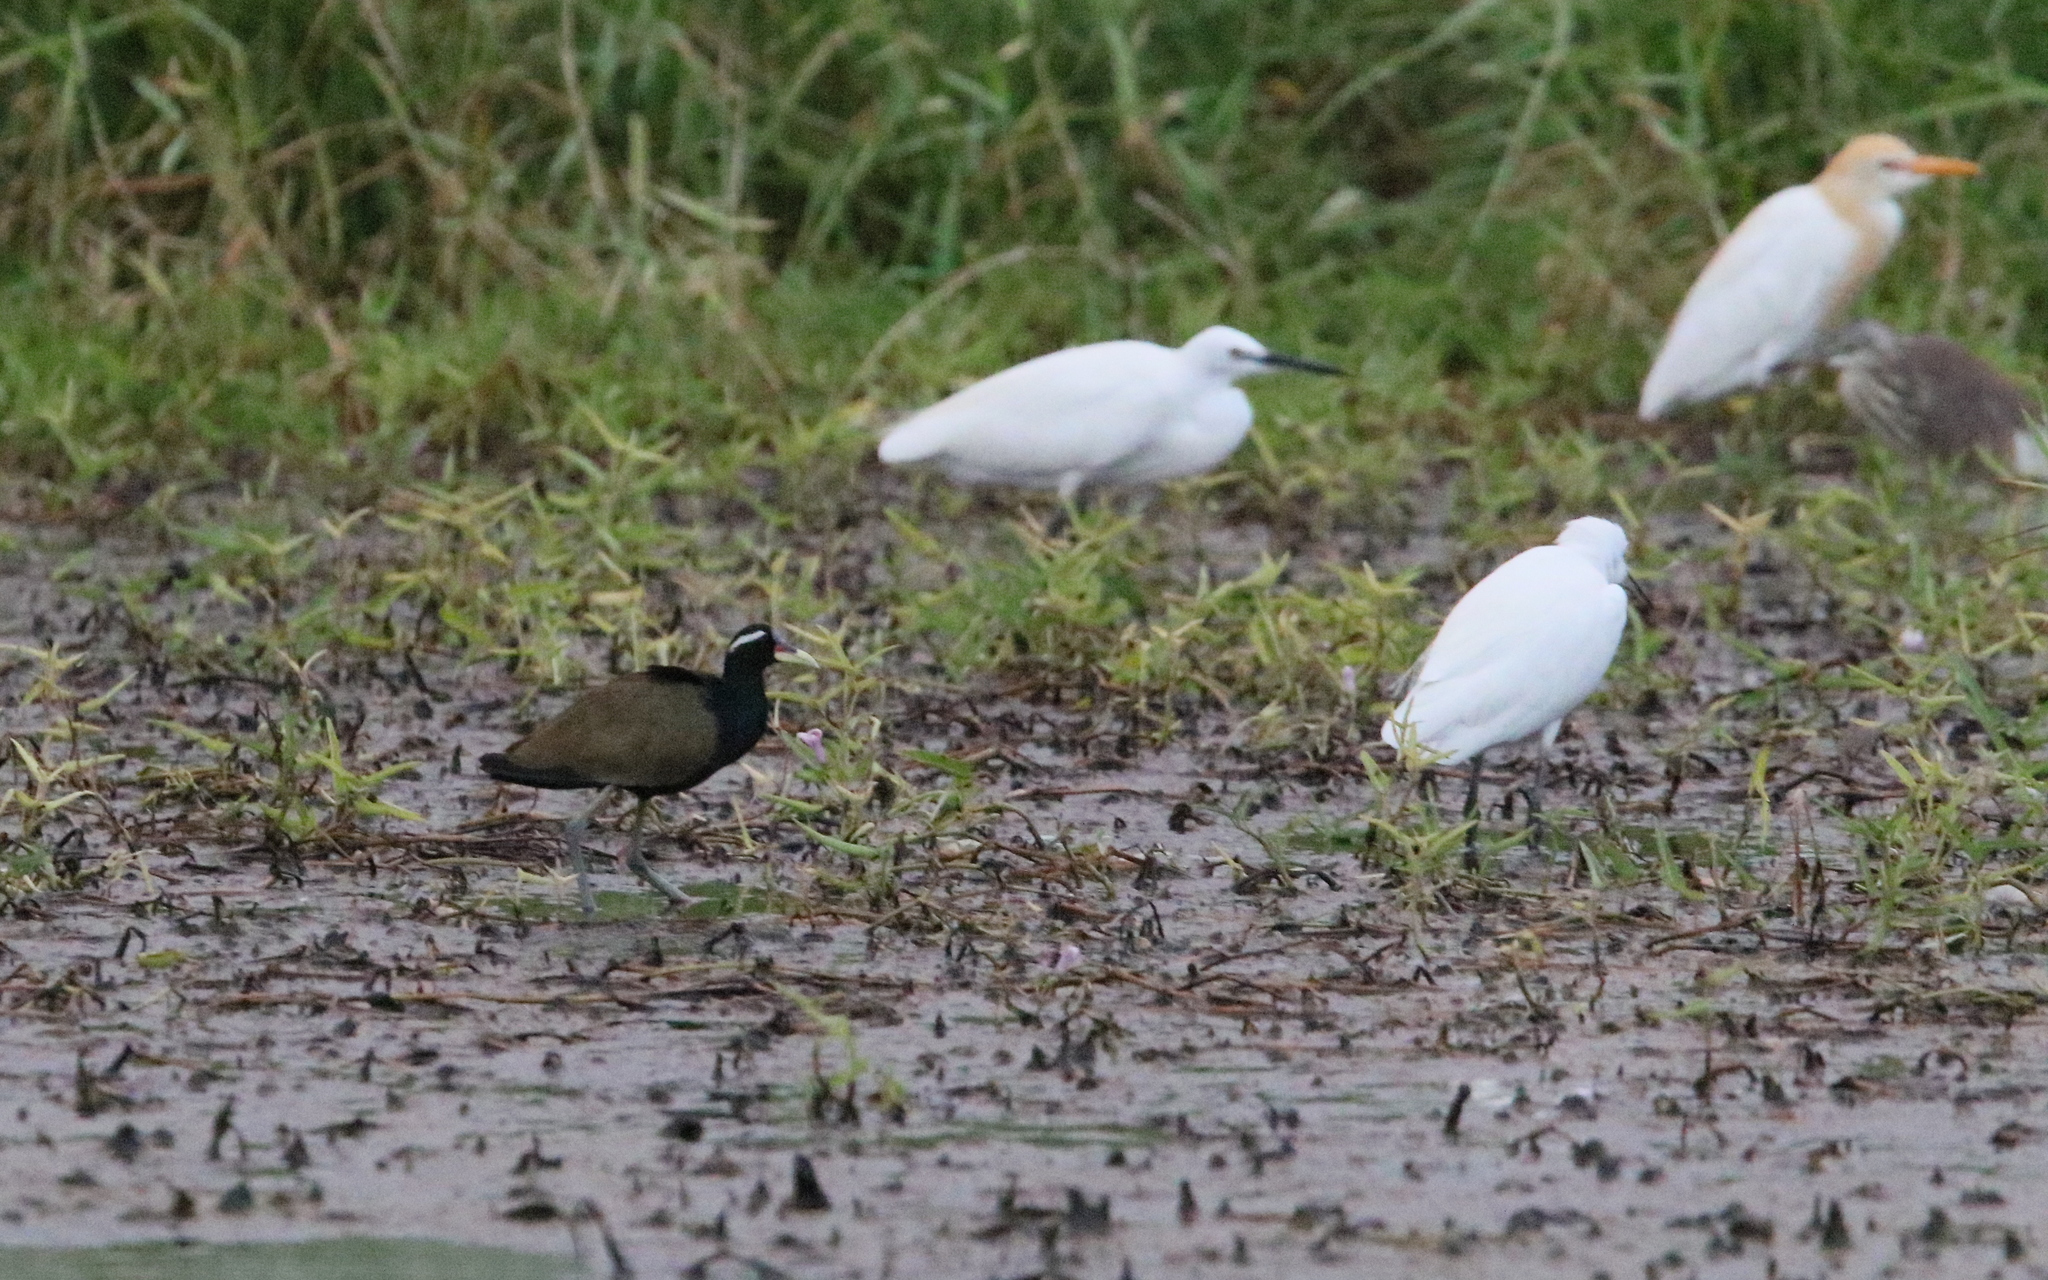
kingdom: Animalia
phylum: Chordata
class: Aves
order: Charadriiformes
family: Jacanidae
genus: Metopidius
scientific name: Metopidius indicus
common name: Bronze-winged jacana
